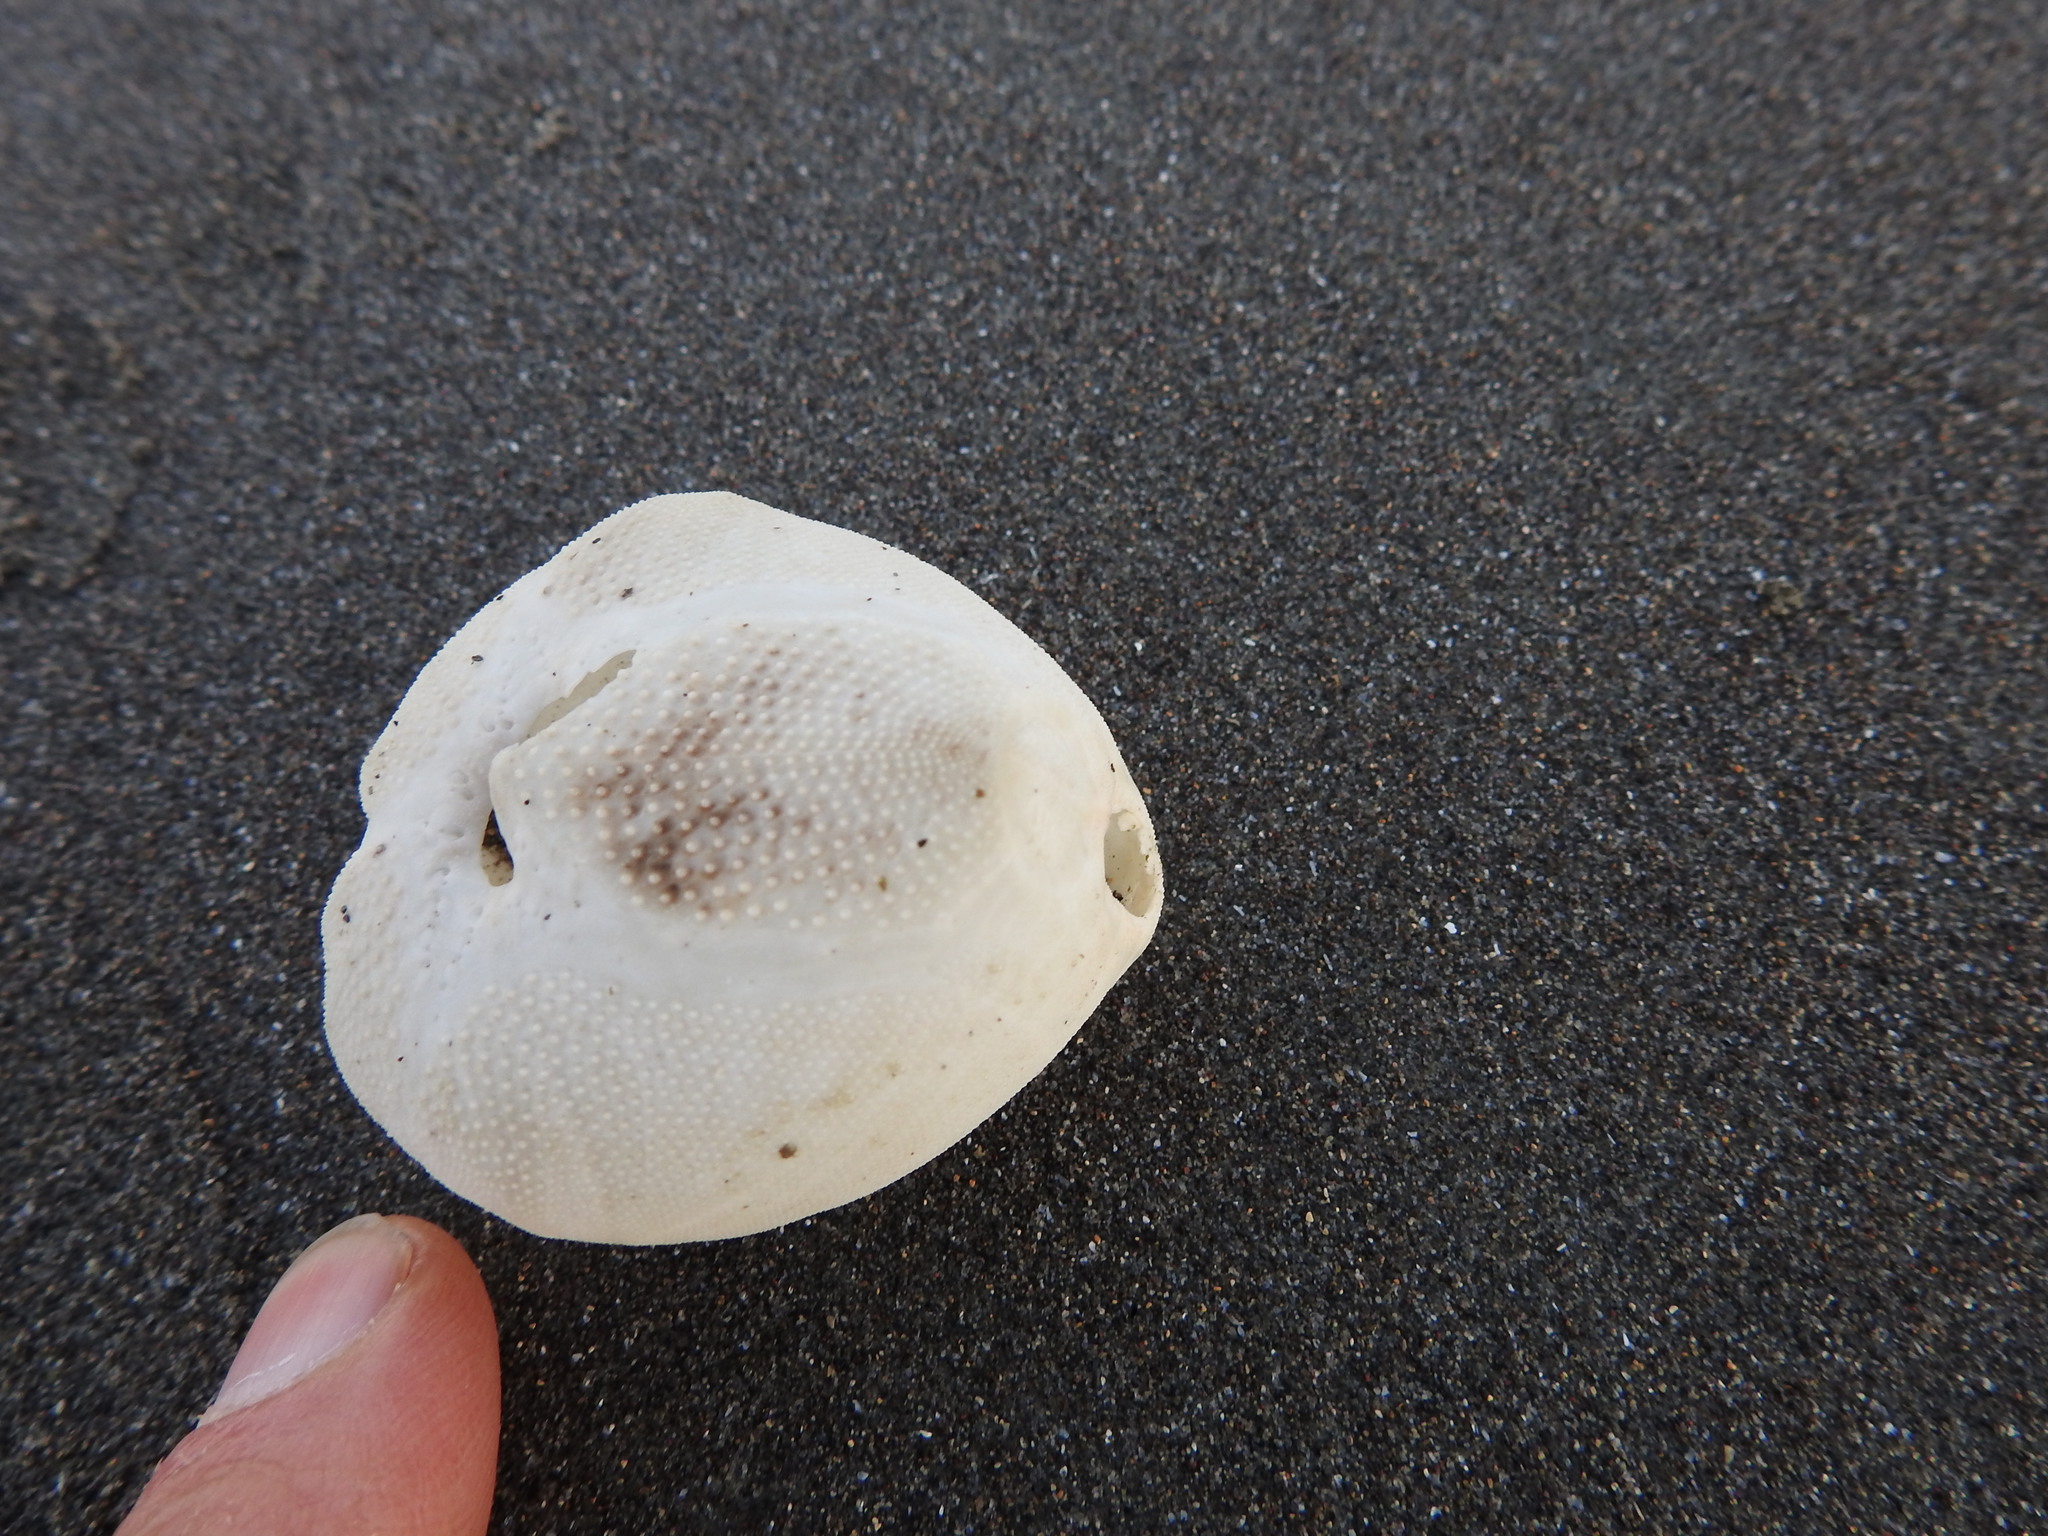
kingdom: Animalia
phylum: Echinodermata
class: Echinoidea
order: Spatangoida
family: Loveniidae
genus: Echinocardium
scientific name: Echinocardium cordatum
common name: Heart-urchin
